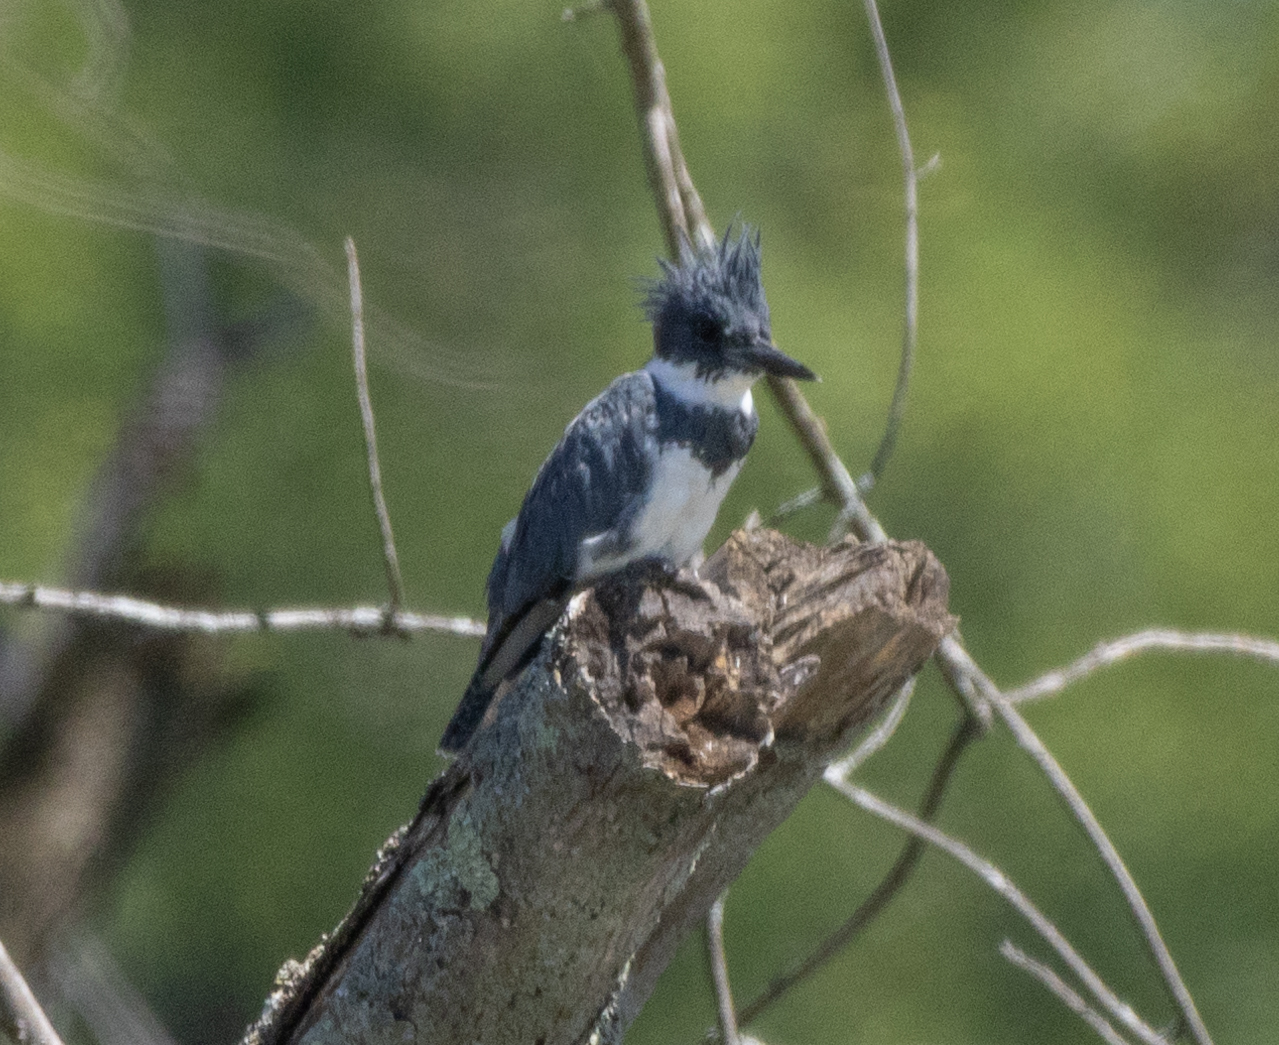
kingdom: Animalia
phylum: Chordata
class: Aves
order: Coraciiformes
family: Alcedinidae
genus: Megaceryle
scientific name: Megaceryle alcyon
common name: Belted kingfisher
